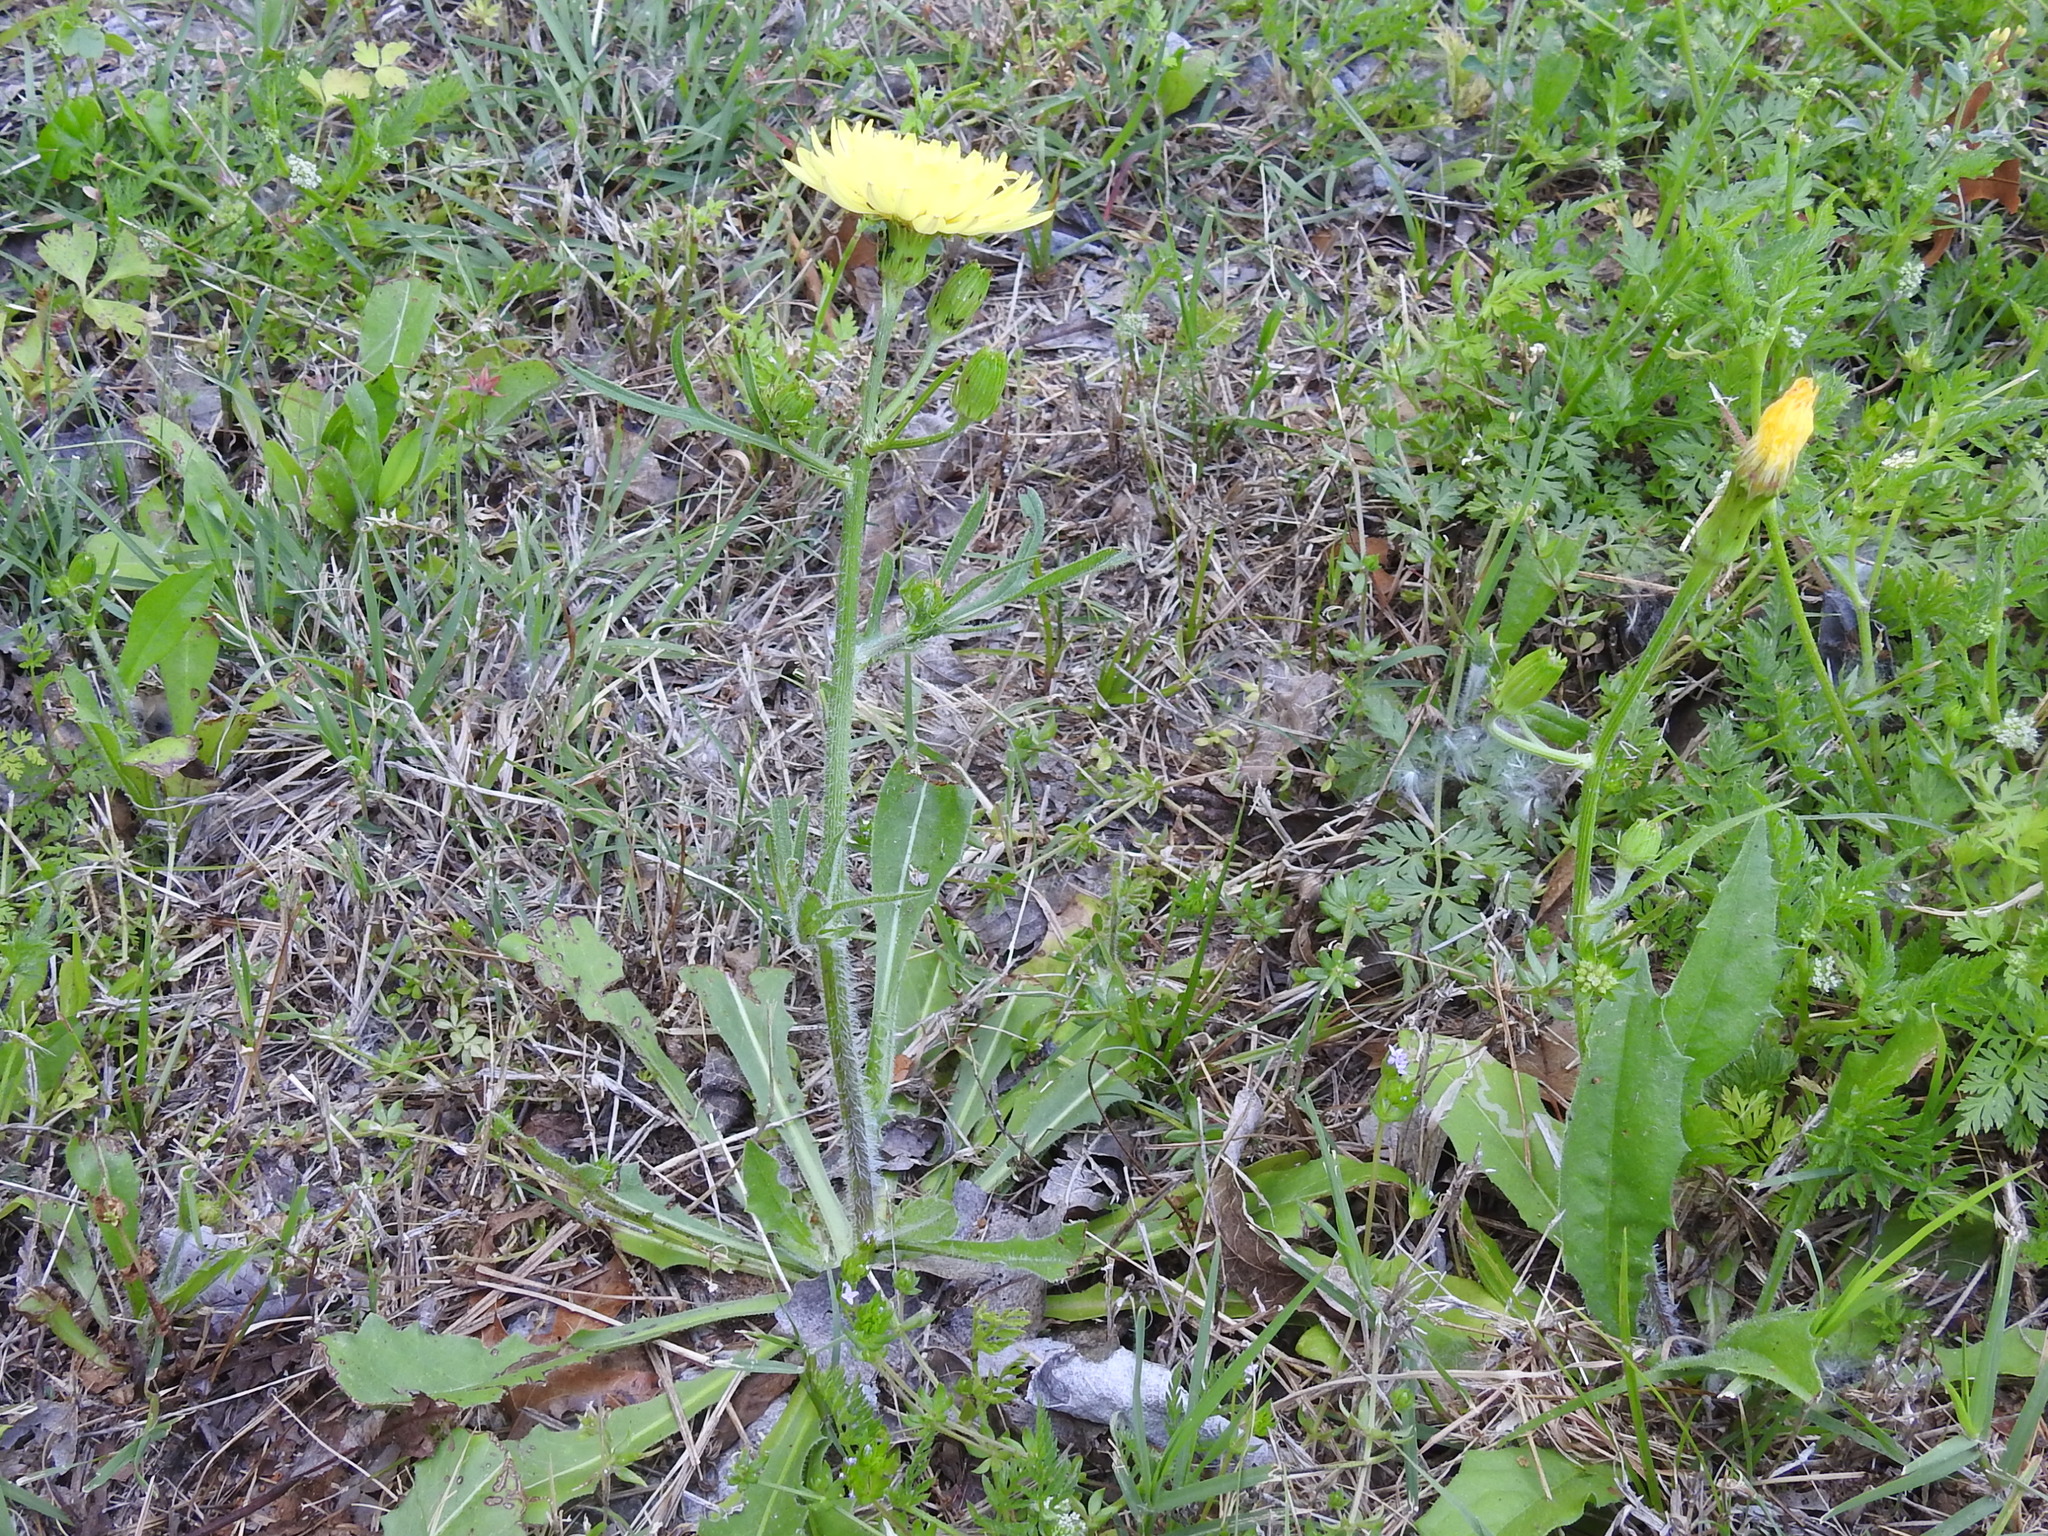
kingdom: Plantae
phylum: Tracheophyta
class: Magnoliopsida
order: Asterales
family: Asteraceae
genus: Pyrrhopappus
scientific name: Pyrrhopappus pauciflorus
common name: Texas false dandelion
